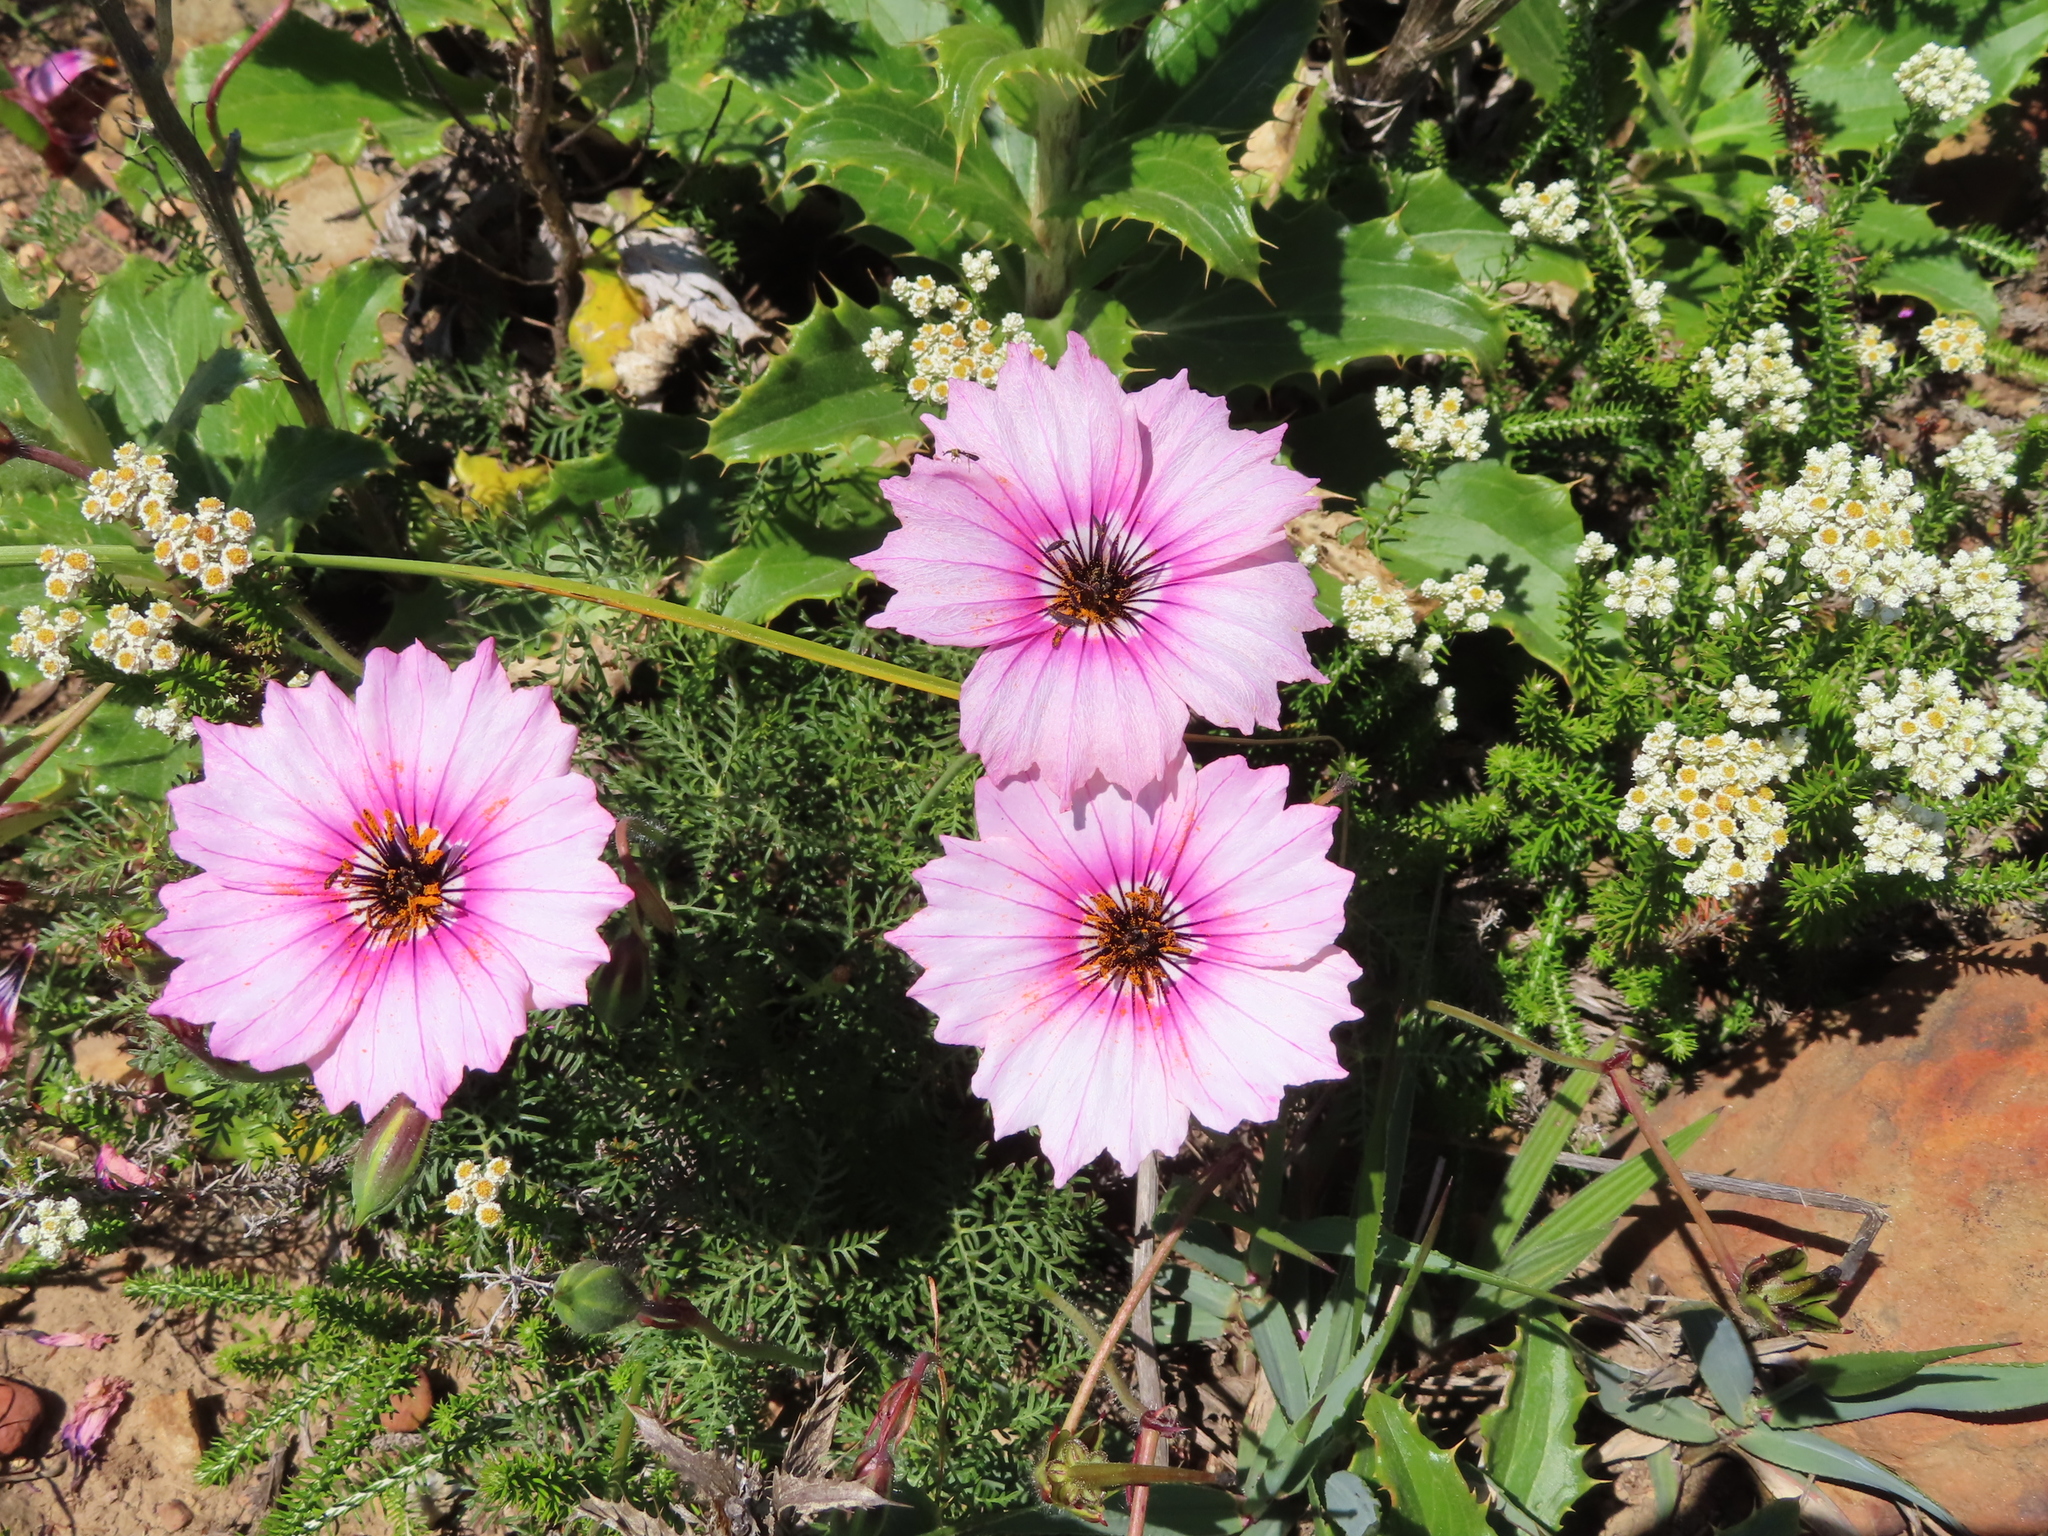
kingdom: Plantae
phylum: Tracheophyta
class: Magnoliopsida
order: Geraniales
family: Geraniaceae
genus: Monsonia
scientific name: Monsonia speciosa
